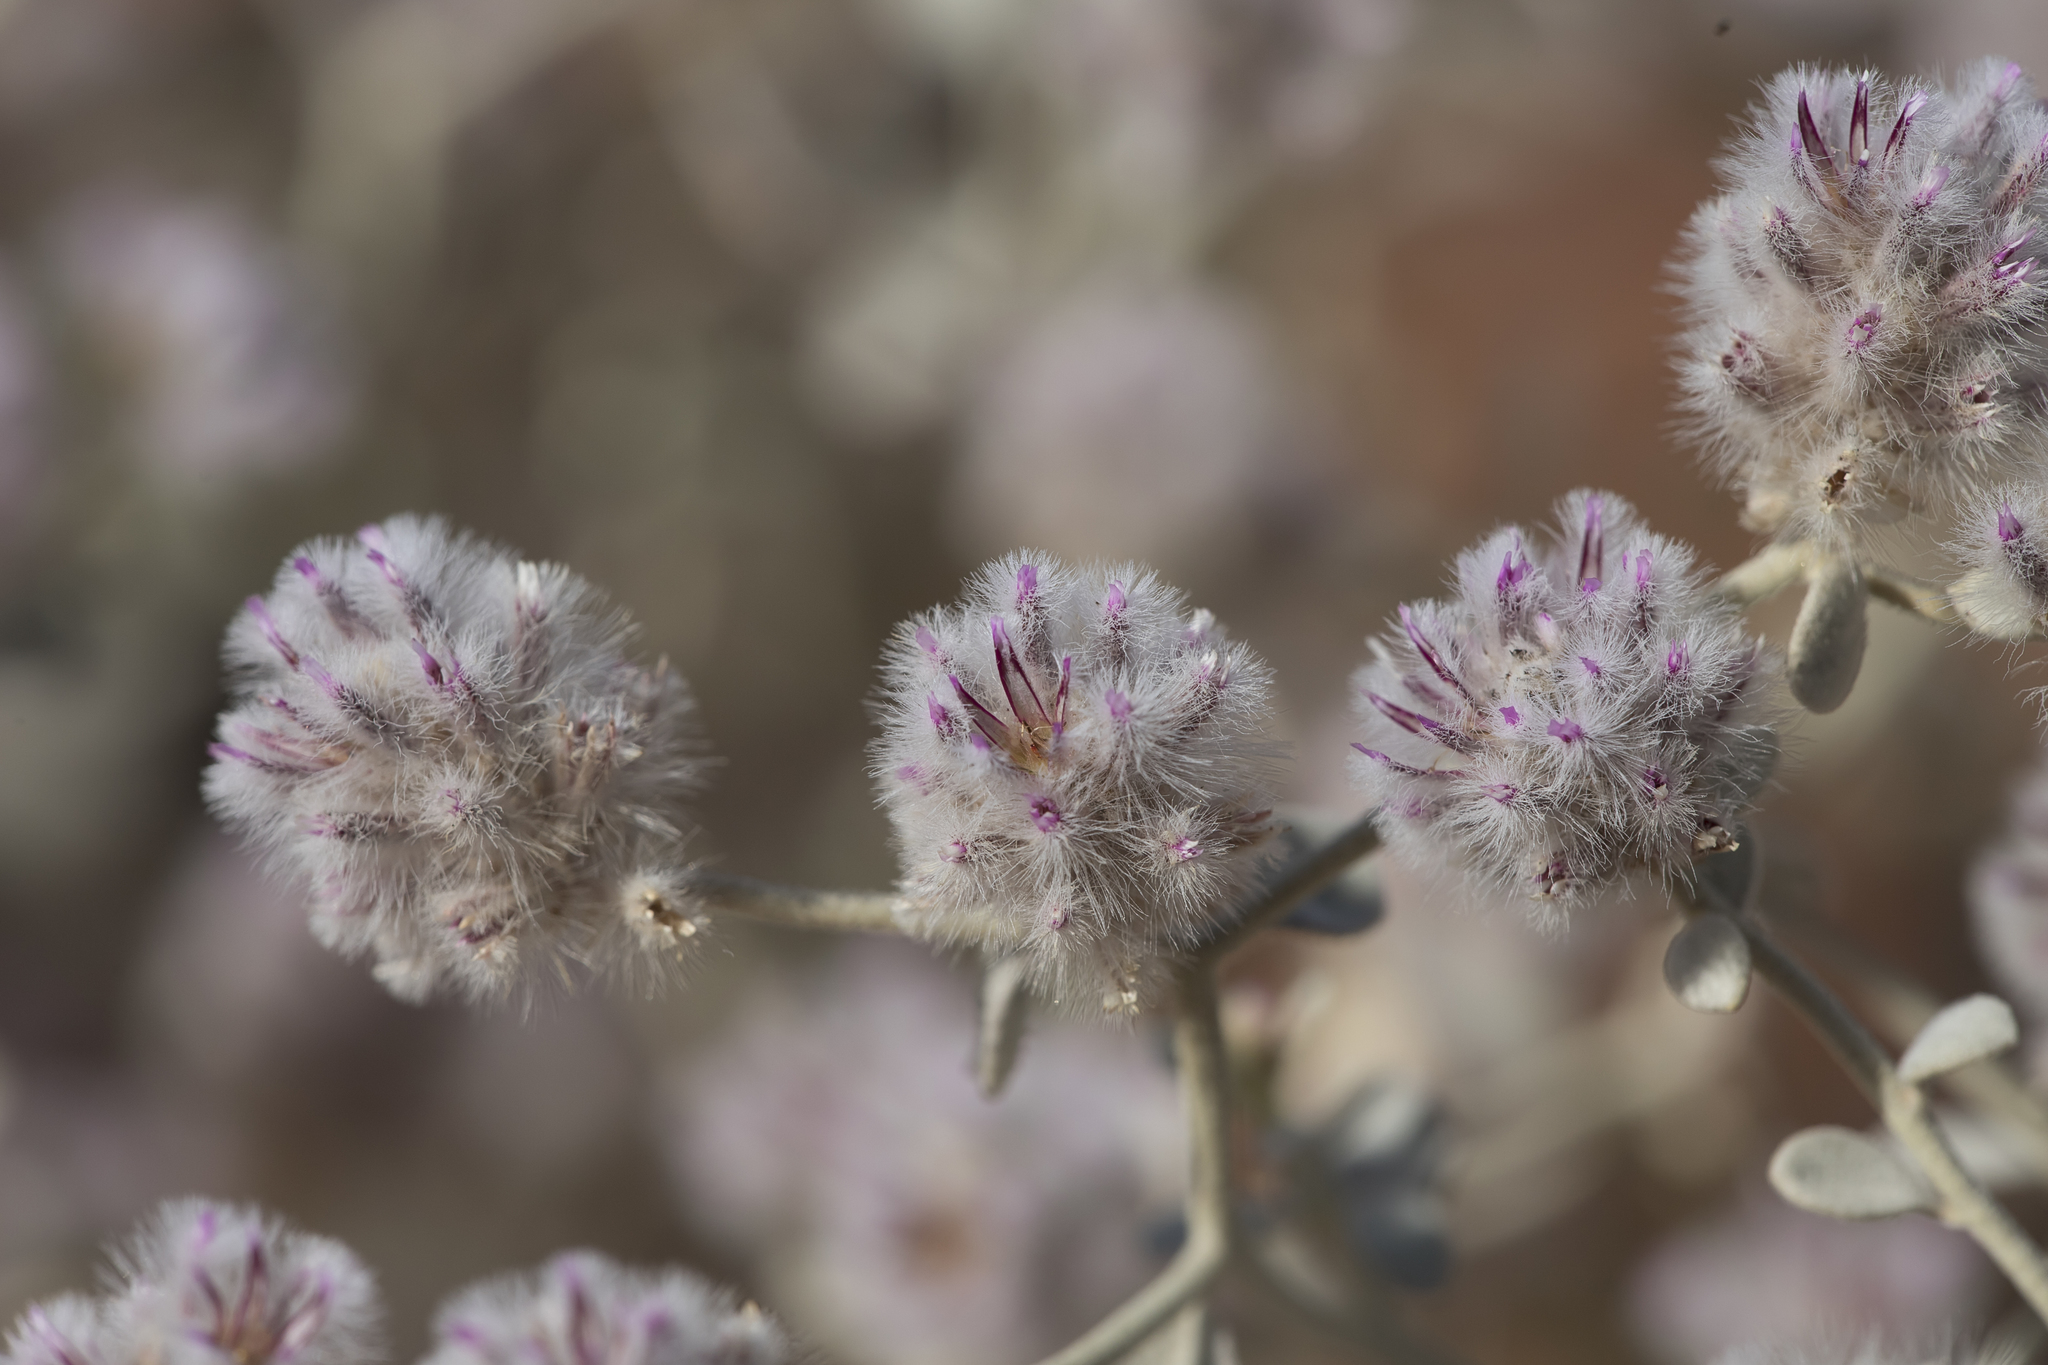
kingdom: Plantae
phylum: Tracheophyta
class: Magnoliopsida
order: Caryophyllales
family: Amaranthaceae
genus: Ptilotus
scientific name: Ptilotus obovatus
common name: Cottonbush
